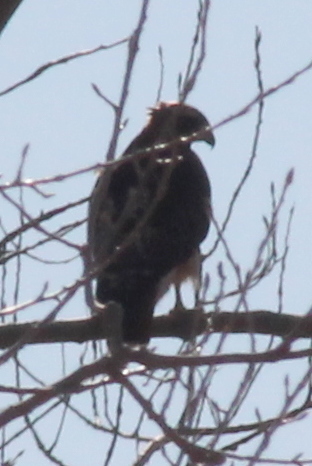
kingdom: Animalia
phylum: Chordata
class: Aves
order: Accipitriformes
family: Accipitridae
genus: Buteo
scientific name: Buteo jamaicensis
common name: Red-tailed hawk
